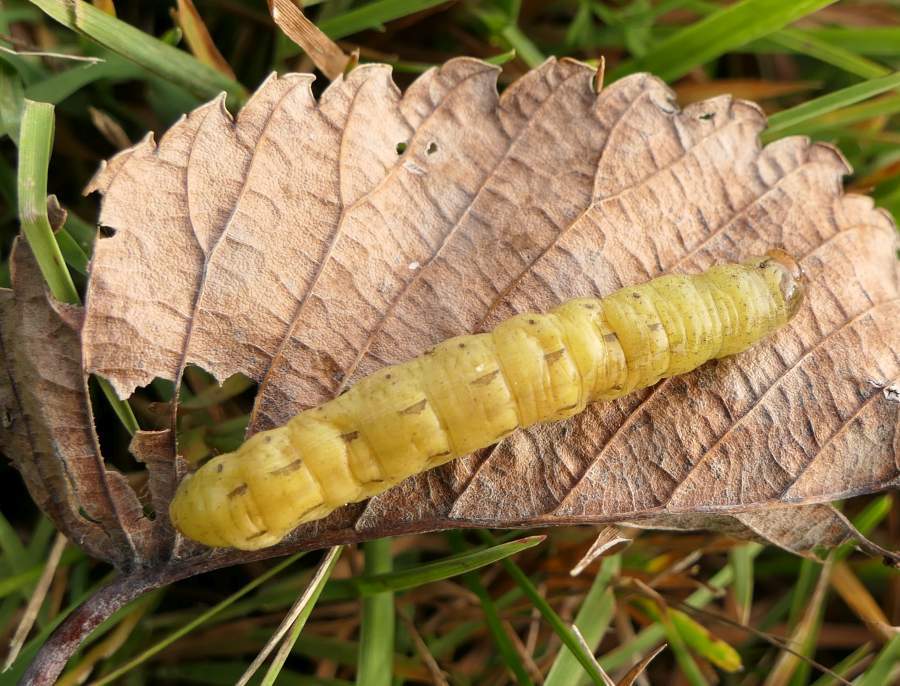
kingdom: Animalia
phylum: Arthropoda
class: Insecta
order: Lepidoptera
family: Noctuidae
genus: Spiramater
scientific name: Spiramater lutra
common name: Otter spiramater moth
